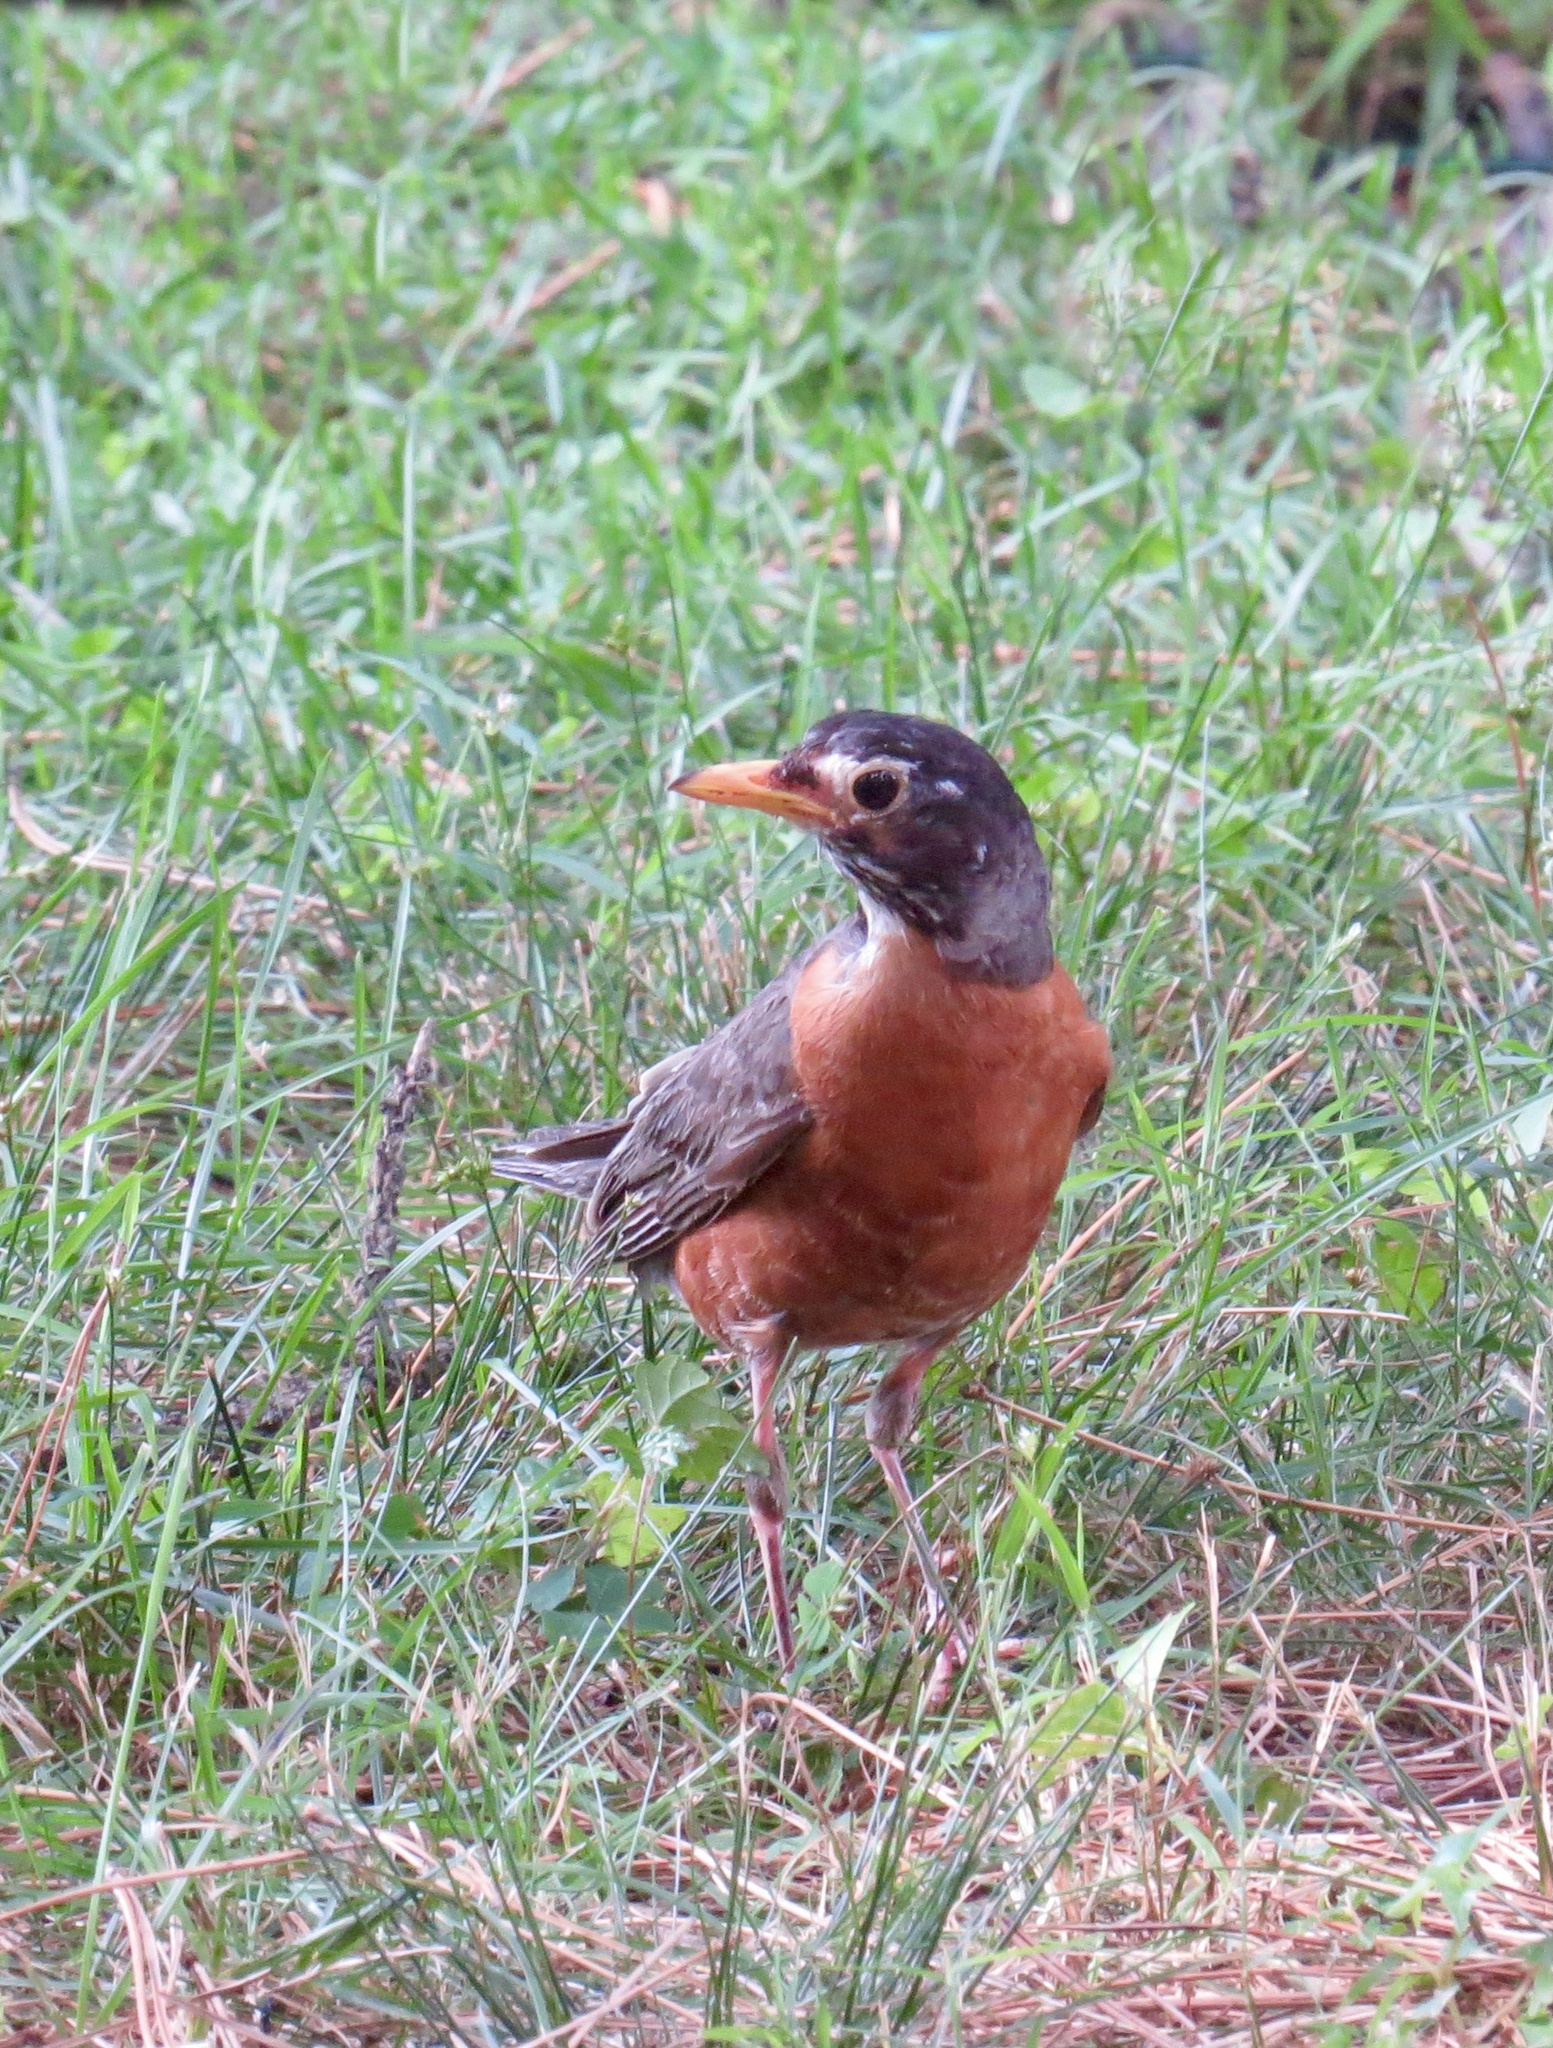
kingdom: Animalia
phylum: Chordata
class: Aves
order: Passeriformes
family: Turdidae
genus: Turdus
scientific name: Turdus migratorius
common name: American robin
